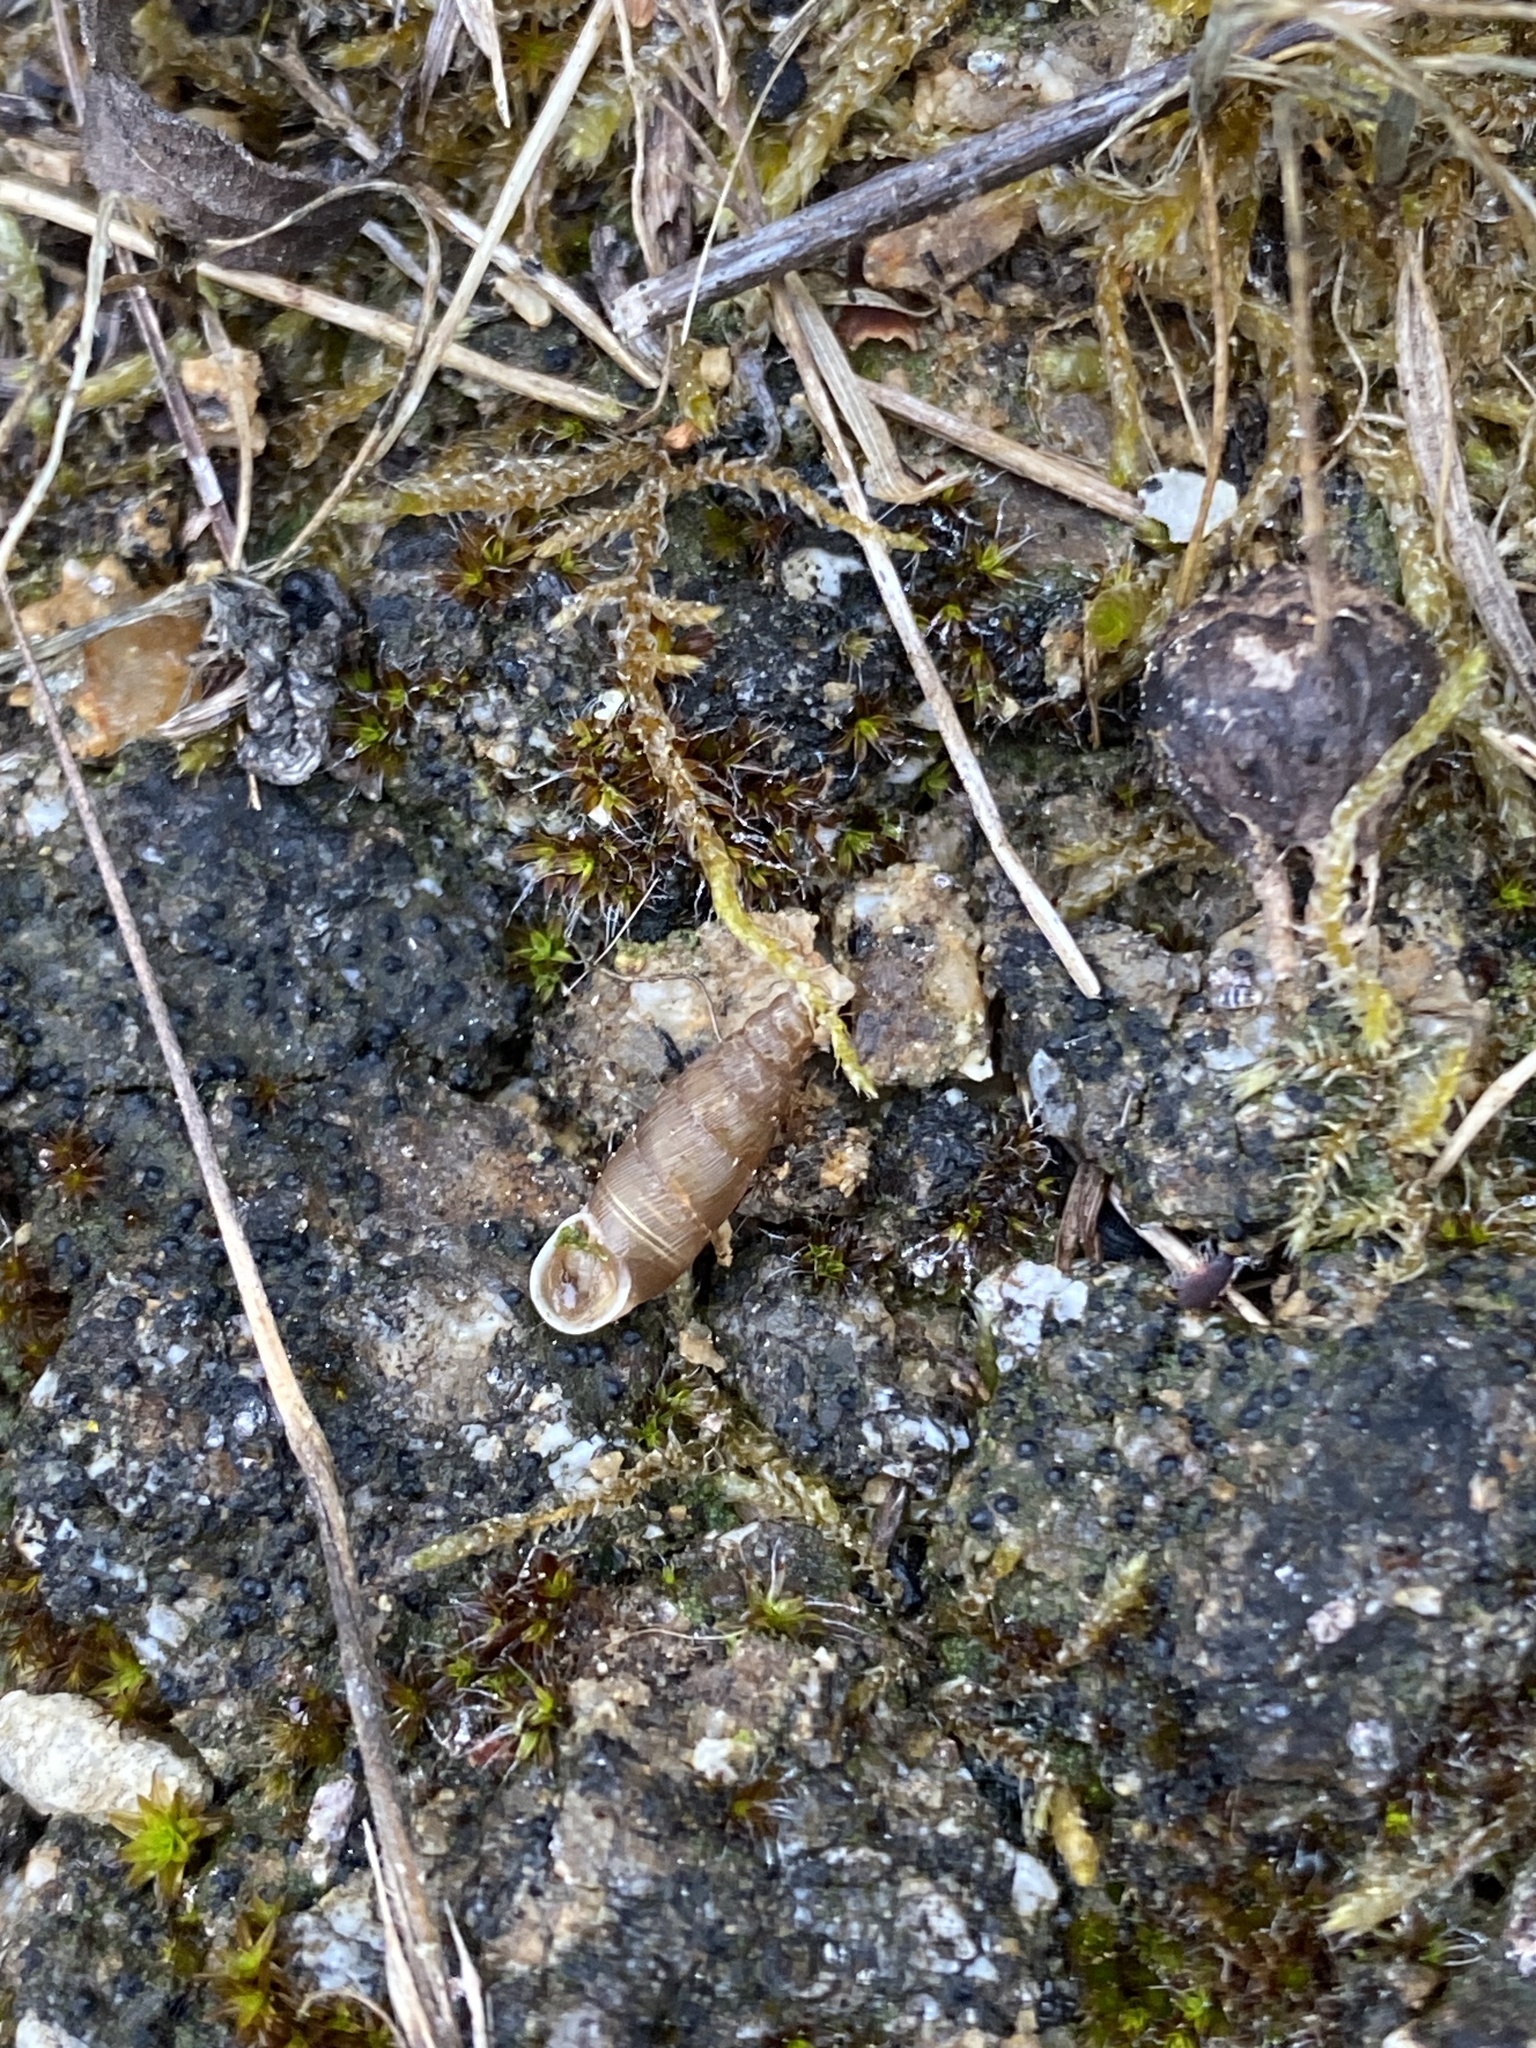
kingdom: Animalia
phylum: Mollusca
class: Gastropoda
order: Stylommatophora
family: Clausiliidae
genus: Papillifera
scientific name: Papillifera solida
